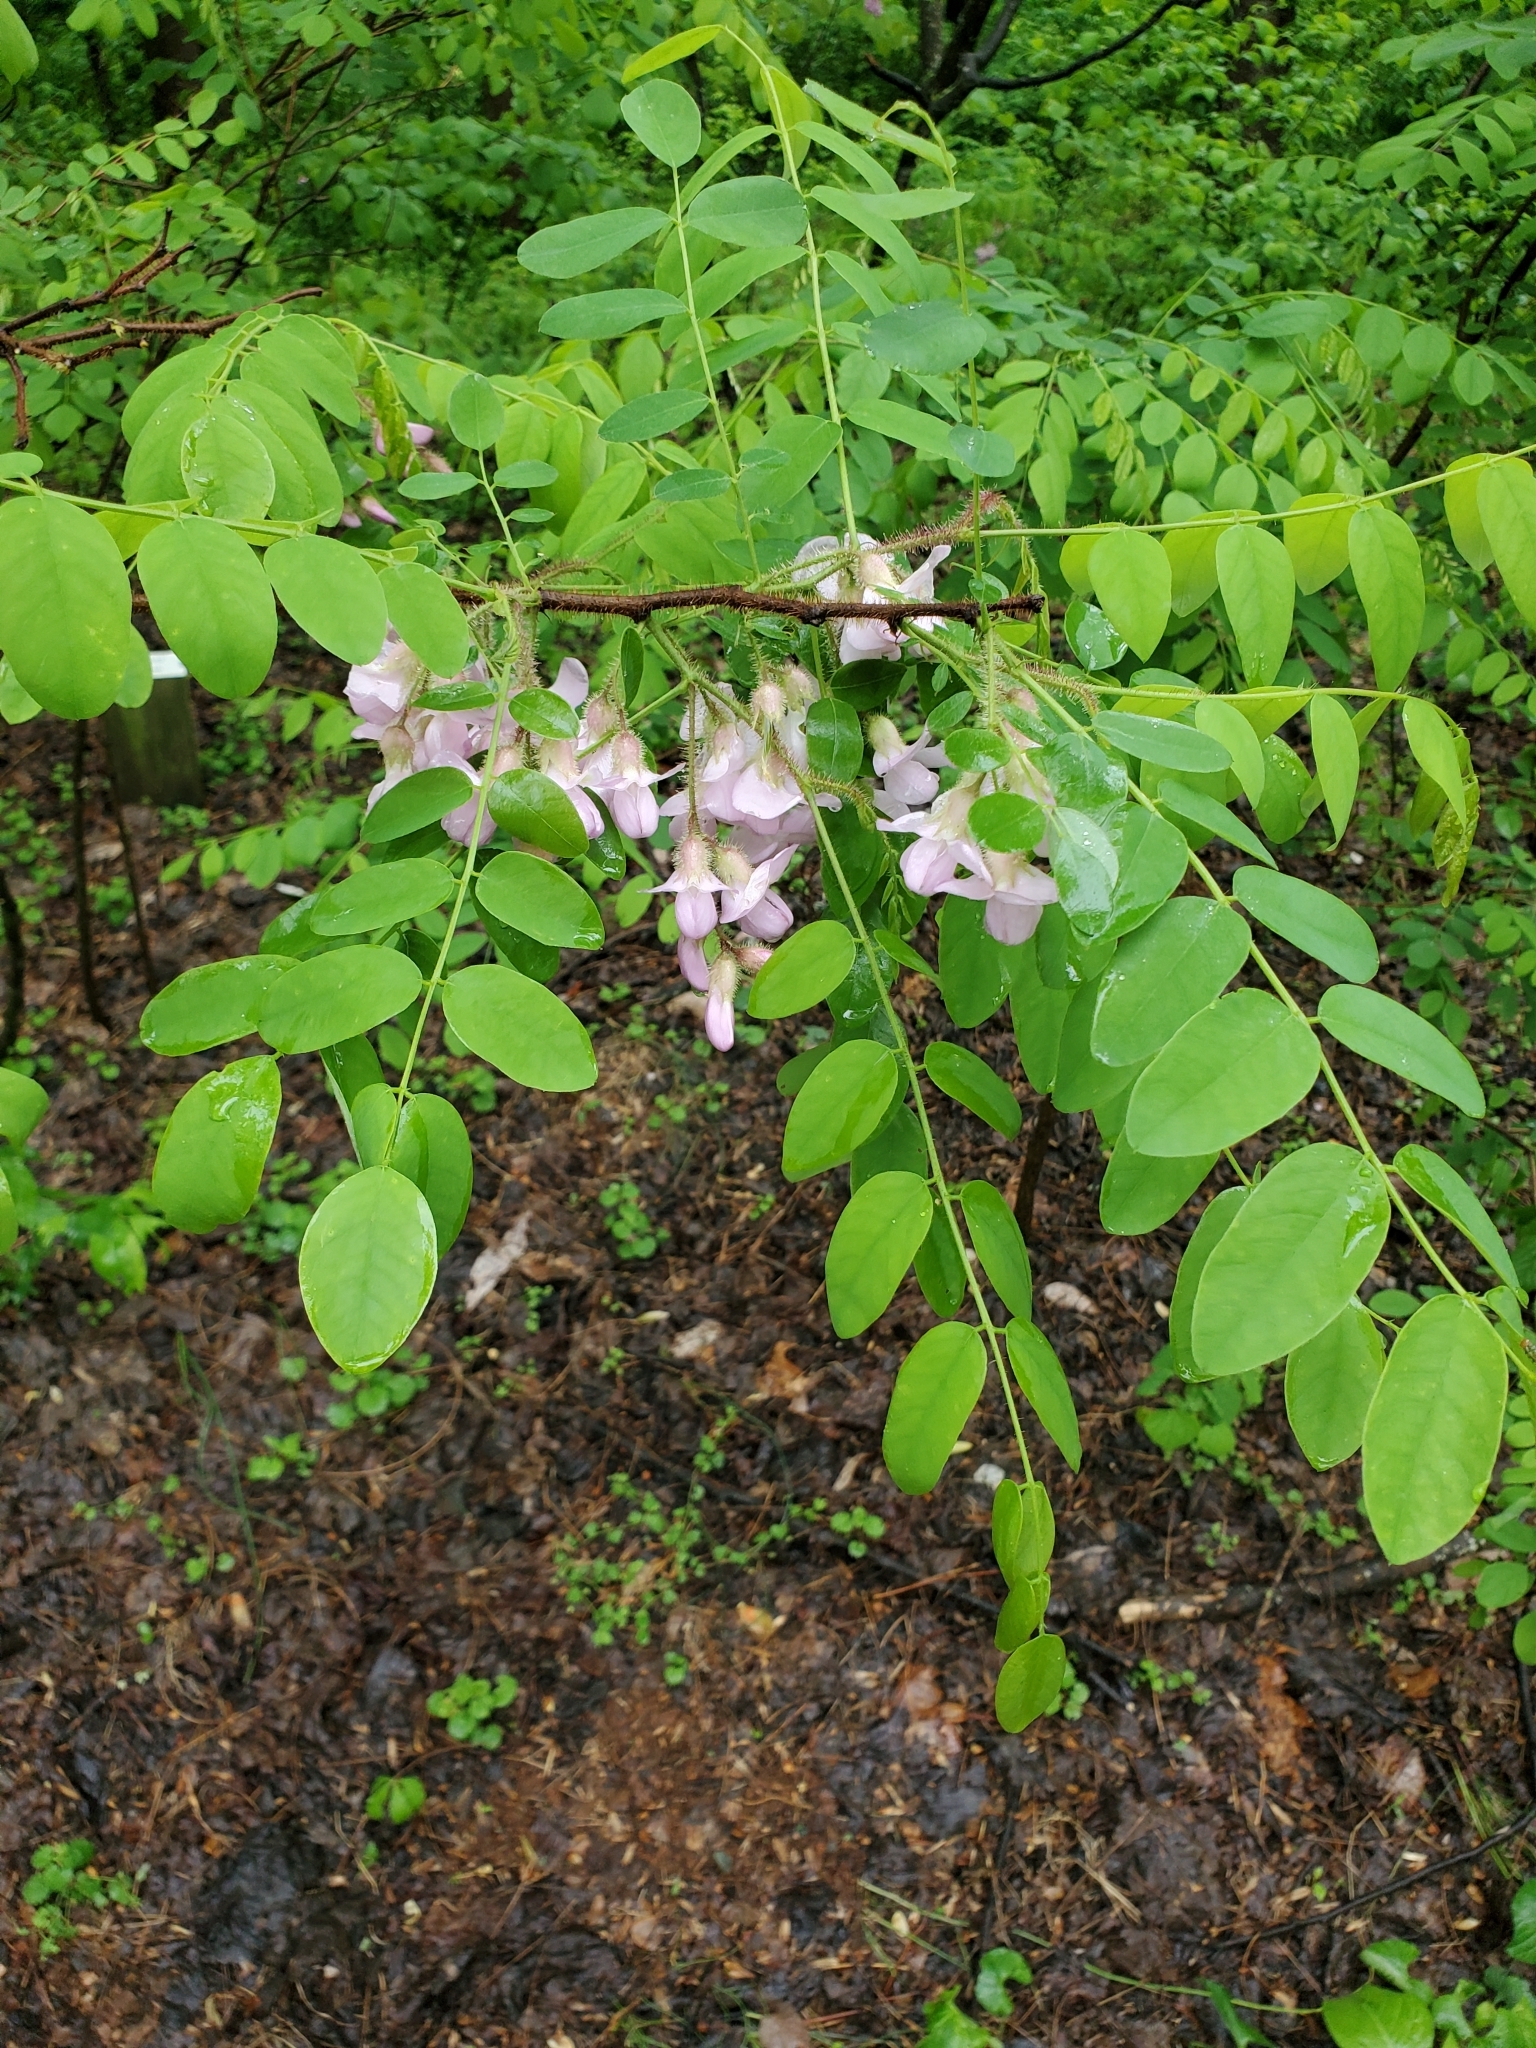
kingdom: Plantae
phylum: Tracheophyta
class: Magnoliopsida
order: Fabales
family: Fabaceae
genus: Robinia
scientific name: Robinia pseudoacacia
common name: Black locust
